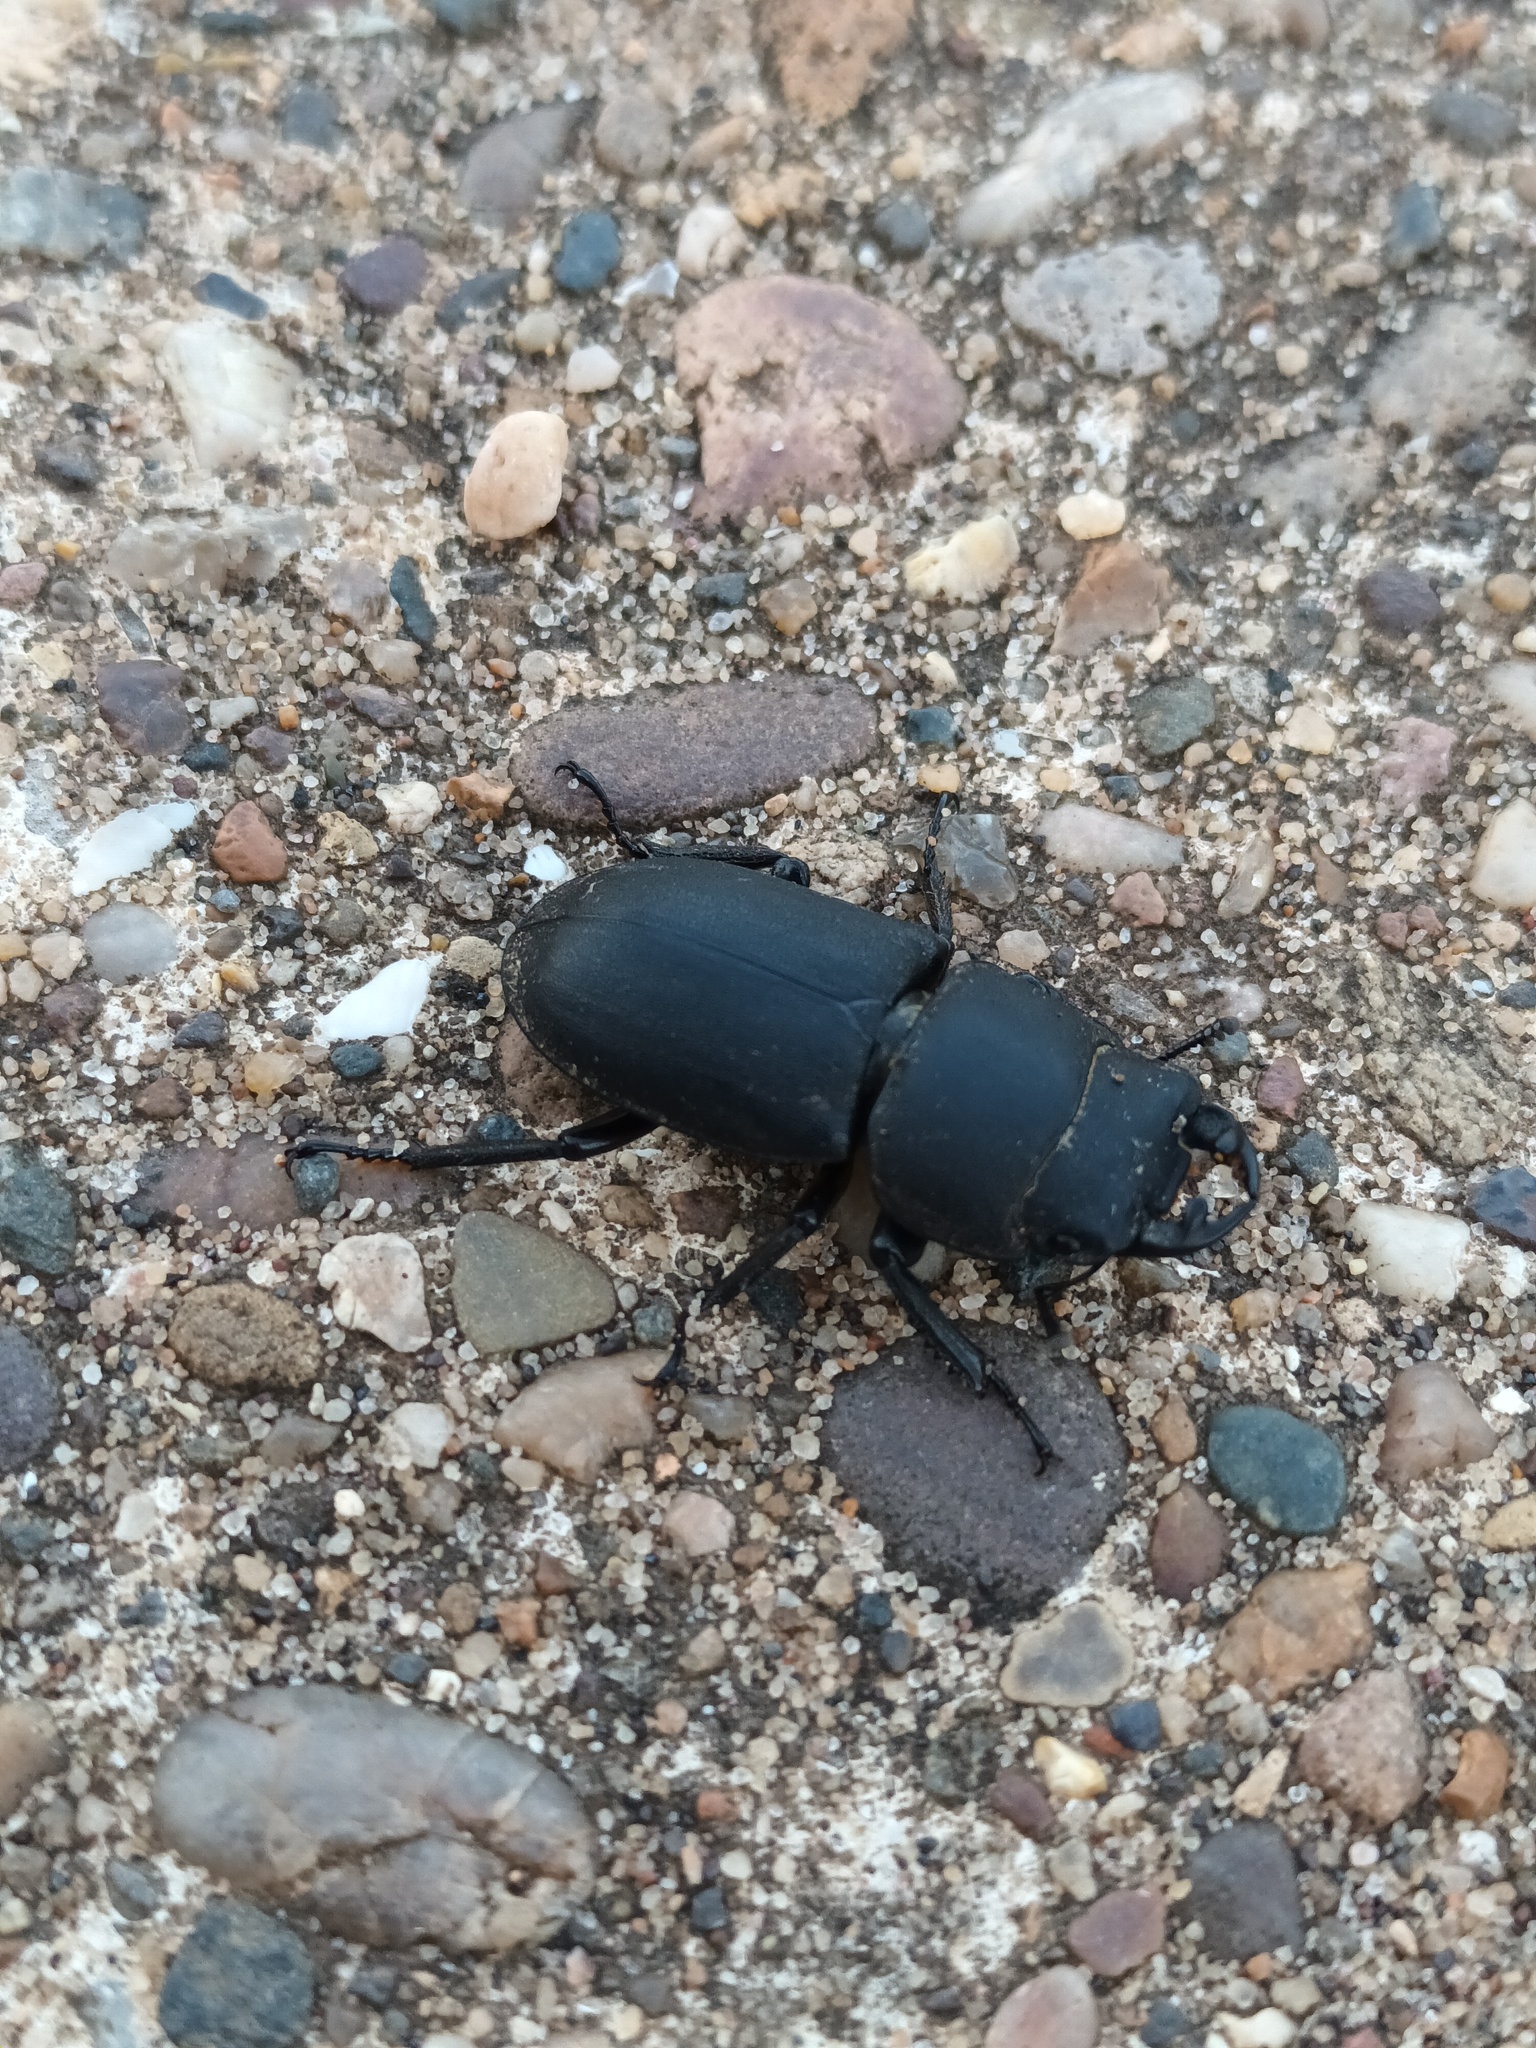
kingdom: Animalia
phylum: Arthropoda
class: Insecta
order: Coleoptera
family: Lucanidae
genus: Dorcus
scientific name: Dorcus parallelipipedus
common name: Lesser stag beetle
